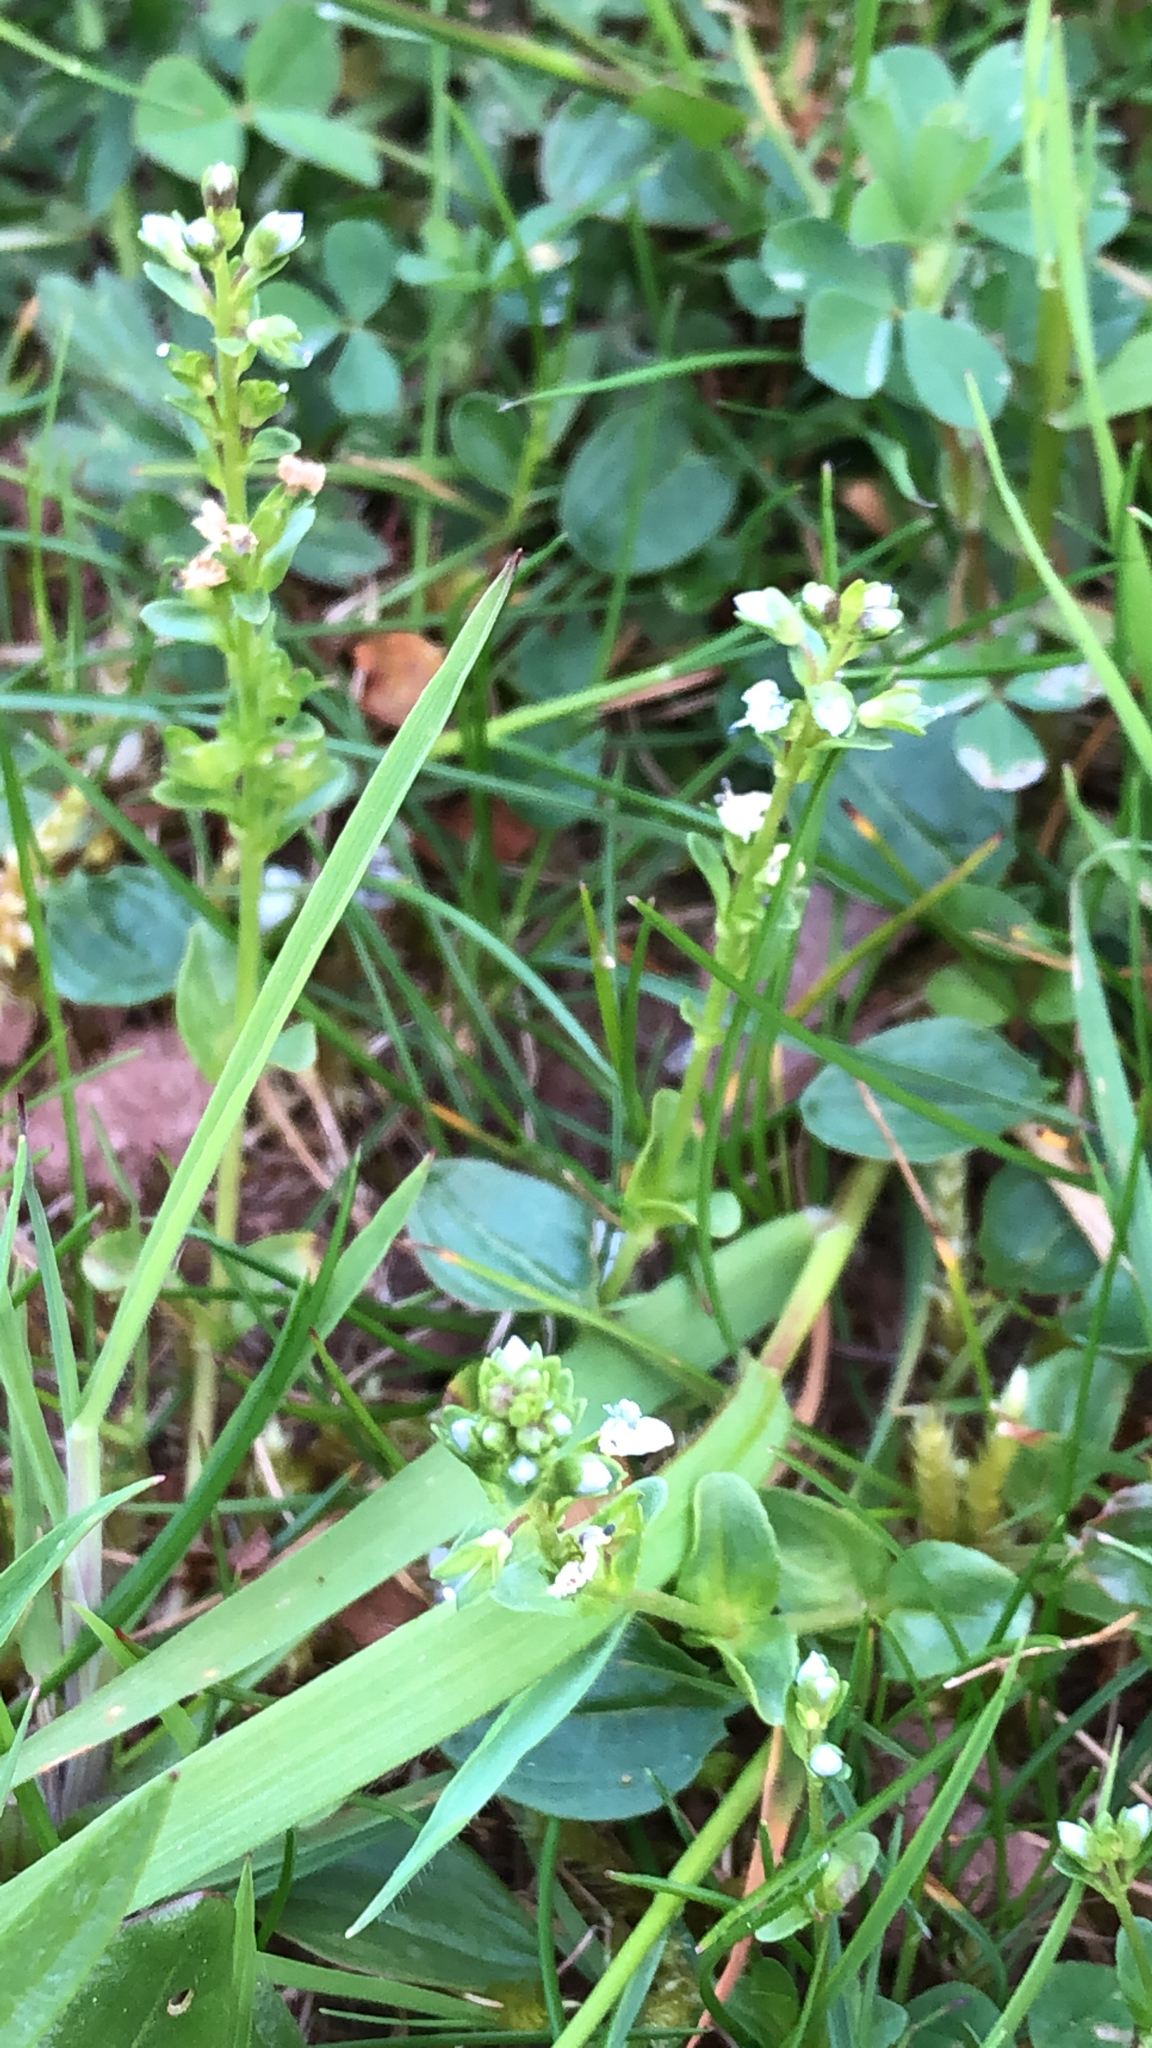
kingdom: Plantae
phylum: Tracheophyta
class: Magnoliopsida
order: Lamiales
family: Plantaginaceae
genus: Veronica
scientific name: Veronica serpyllifolia
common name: Thyme-leaved speedwell
